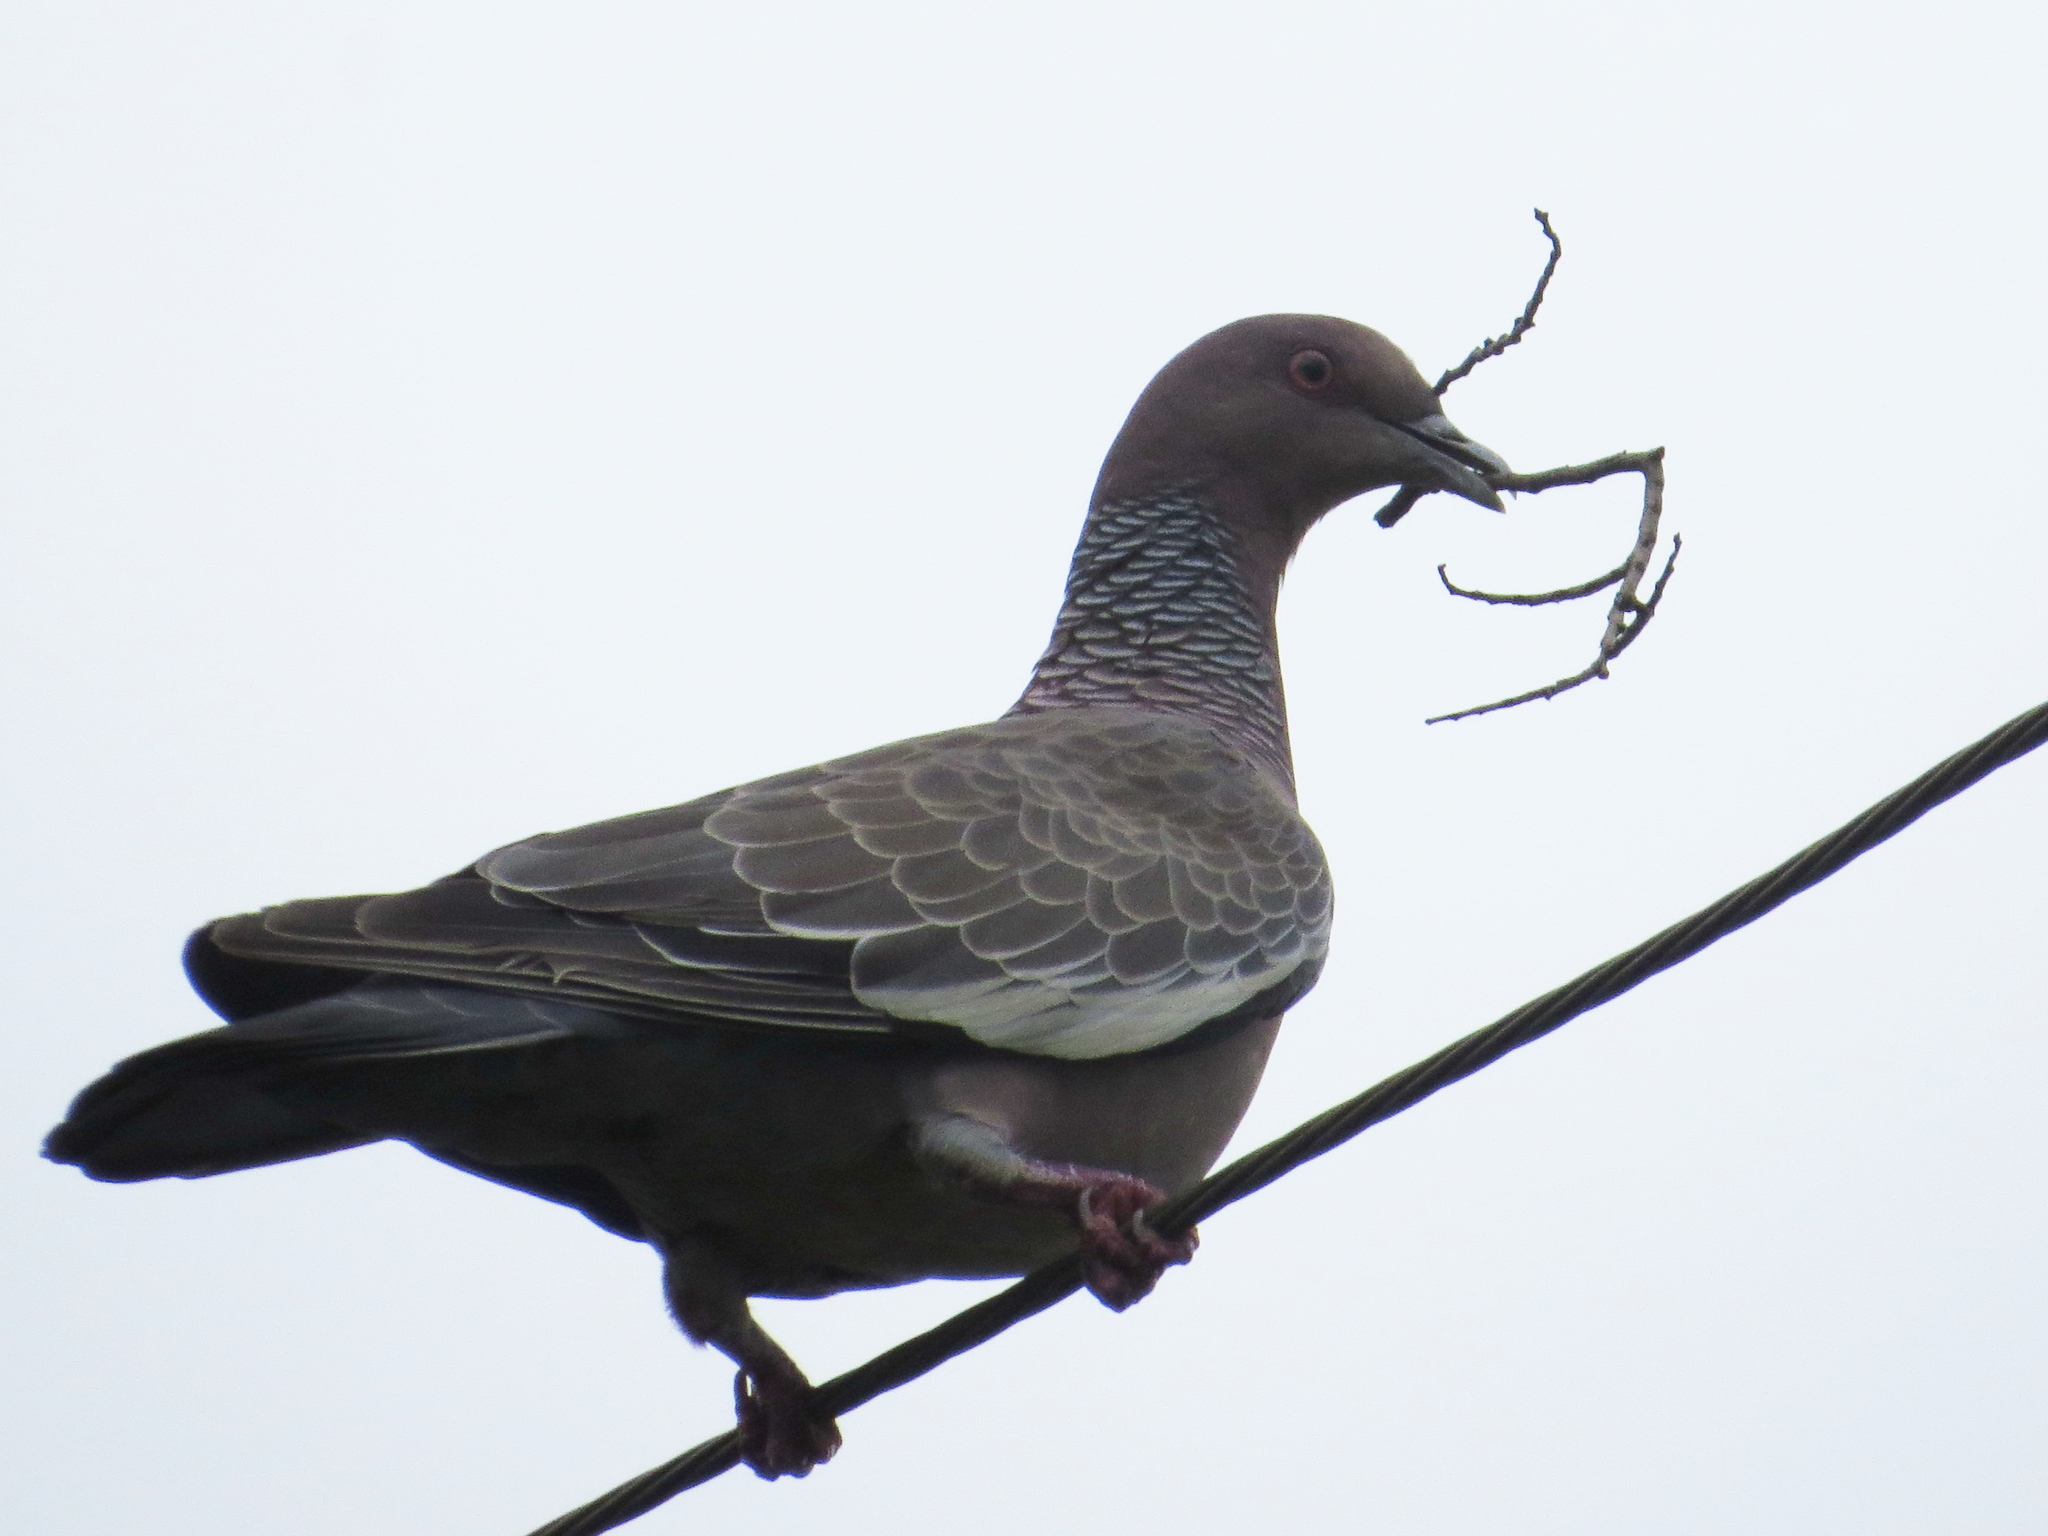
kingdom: Animalia
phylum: Chordata
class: Aves
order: Columbiformes
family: Columbidae
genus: Patagioenas
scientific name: Patagioenas picazuro
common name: Picazuro pigeon
